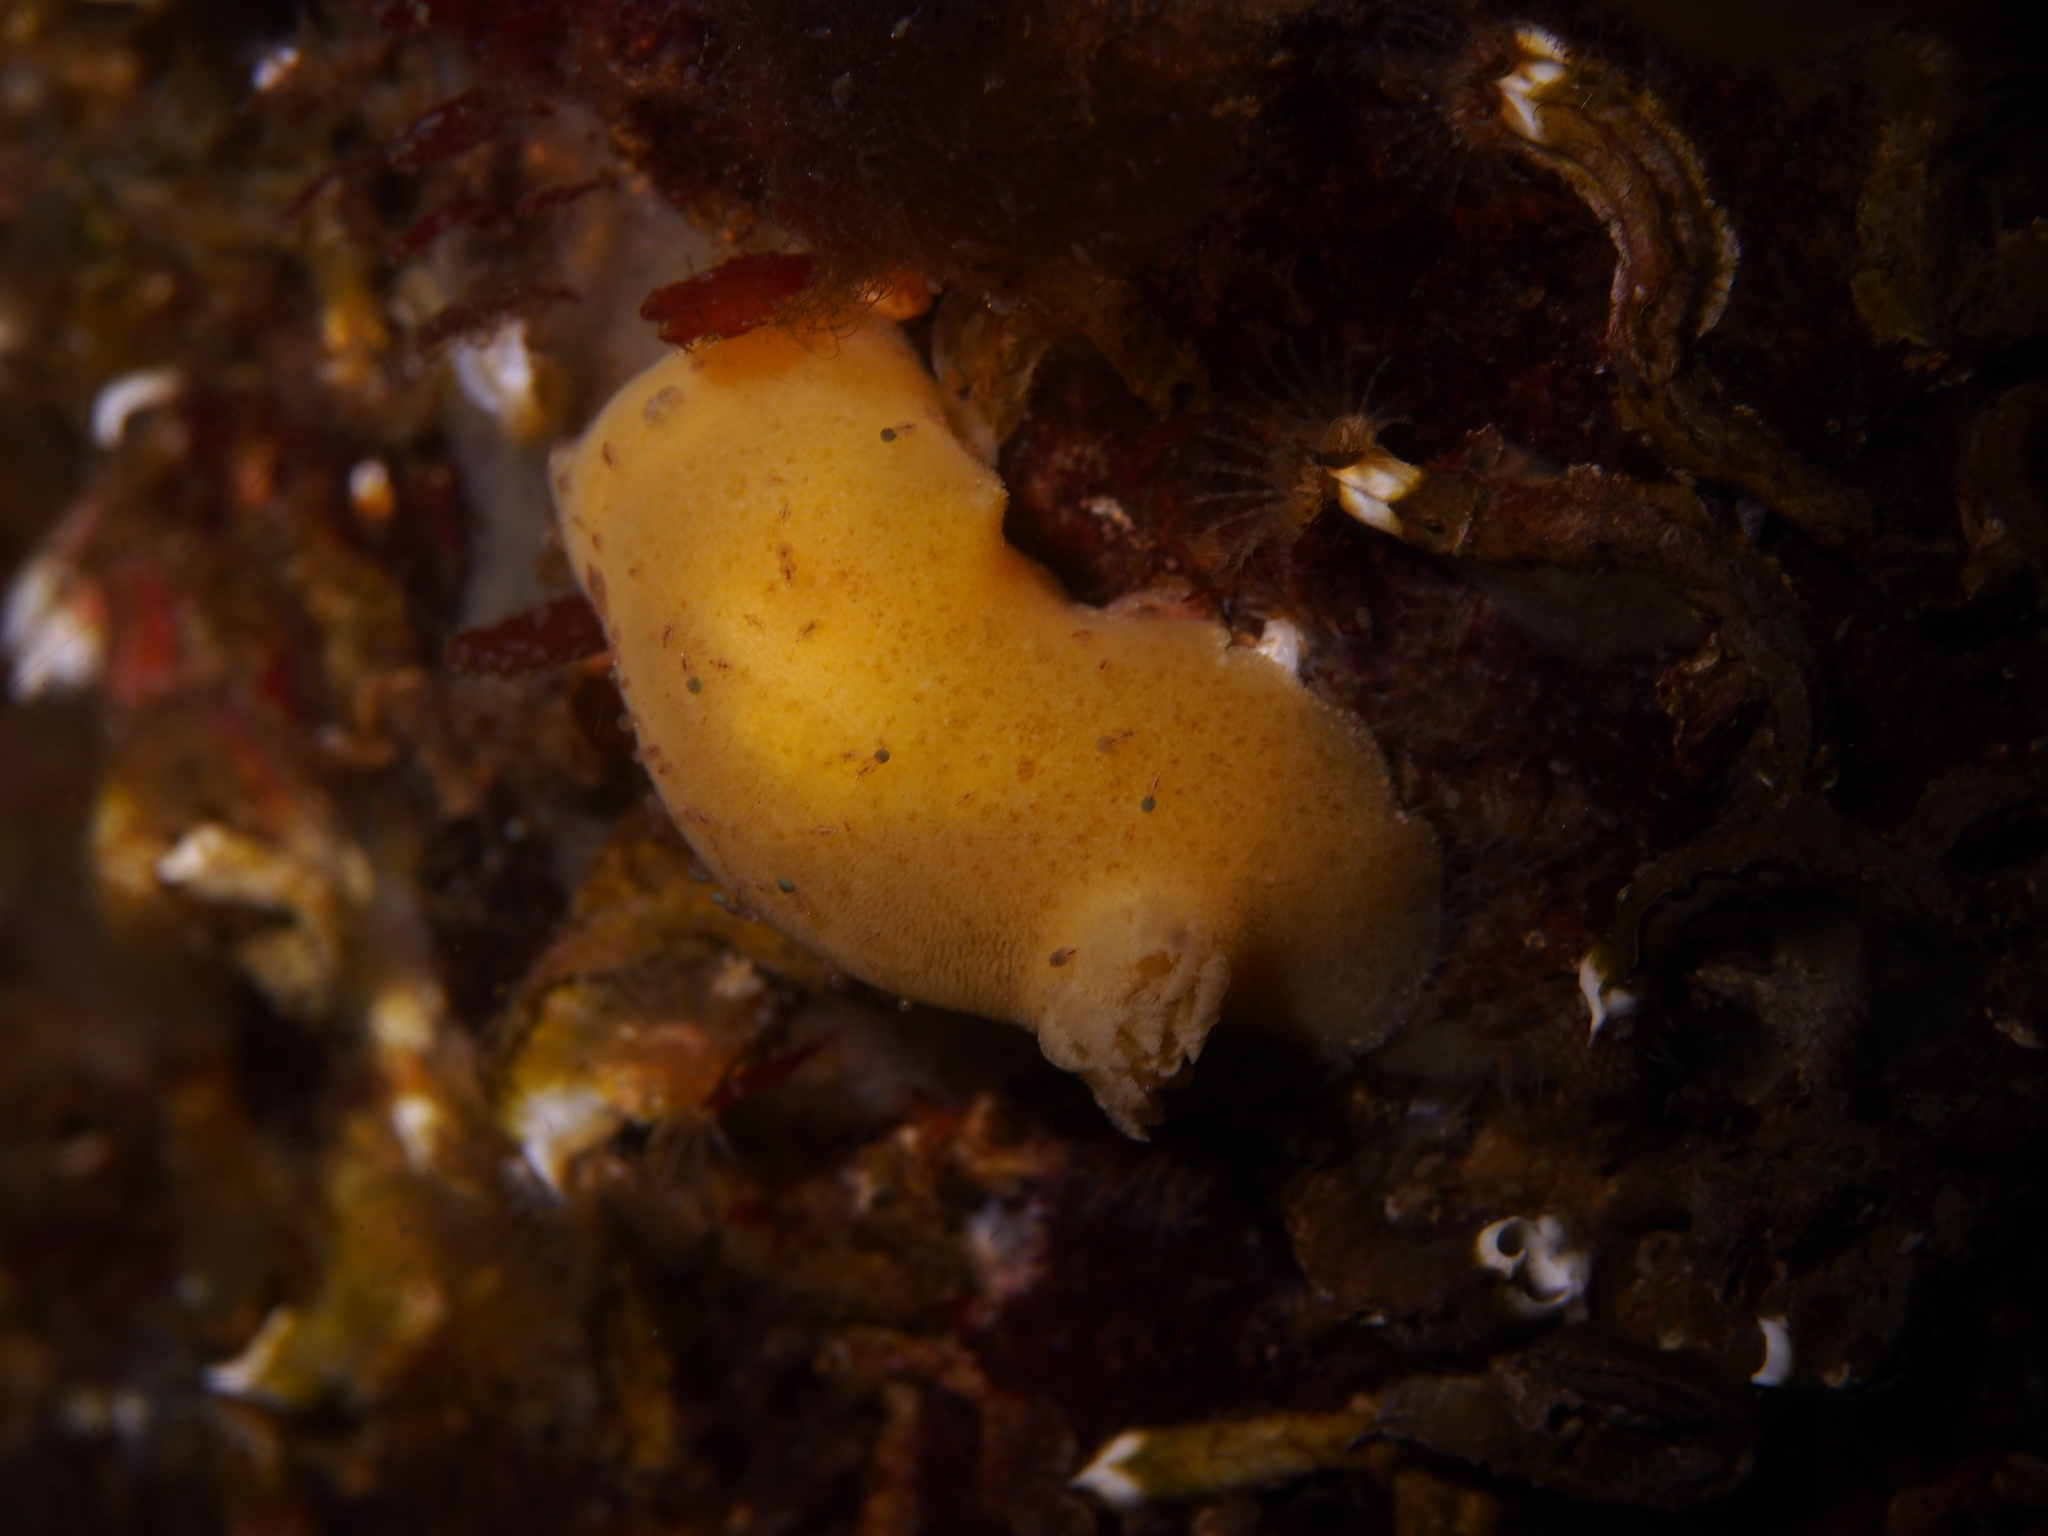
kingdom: Animalia
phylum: Mollusca
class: Gastropoda
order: Nudibranchia
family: Discodorididae
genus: Jorunna
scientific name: Jorunna tomentosa
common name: Grey sea slug
